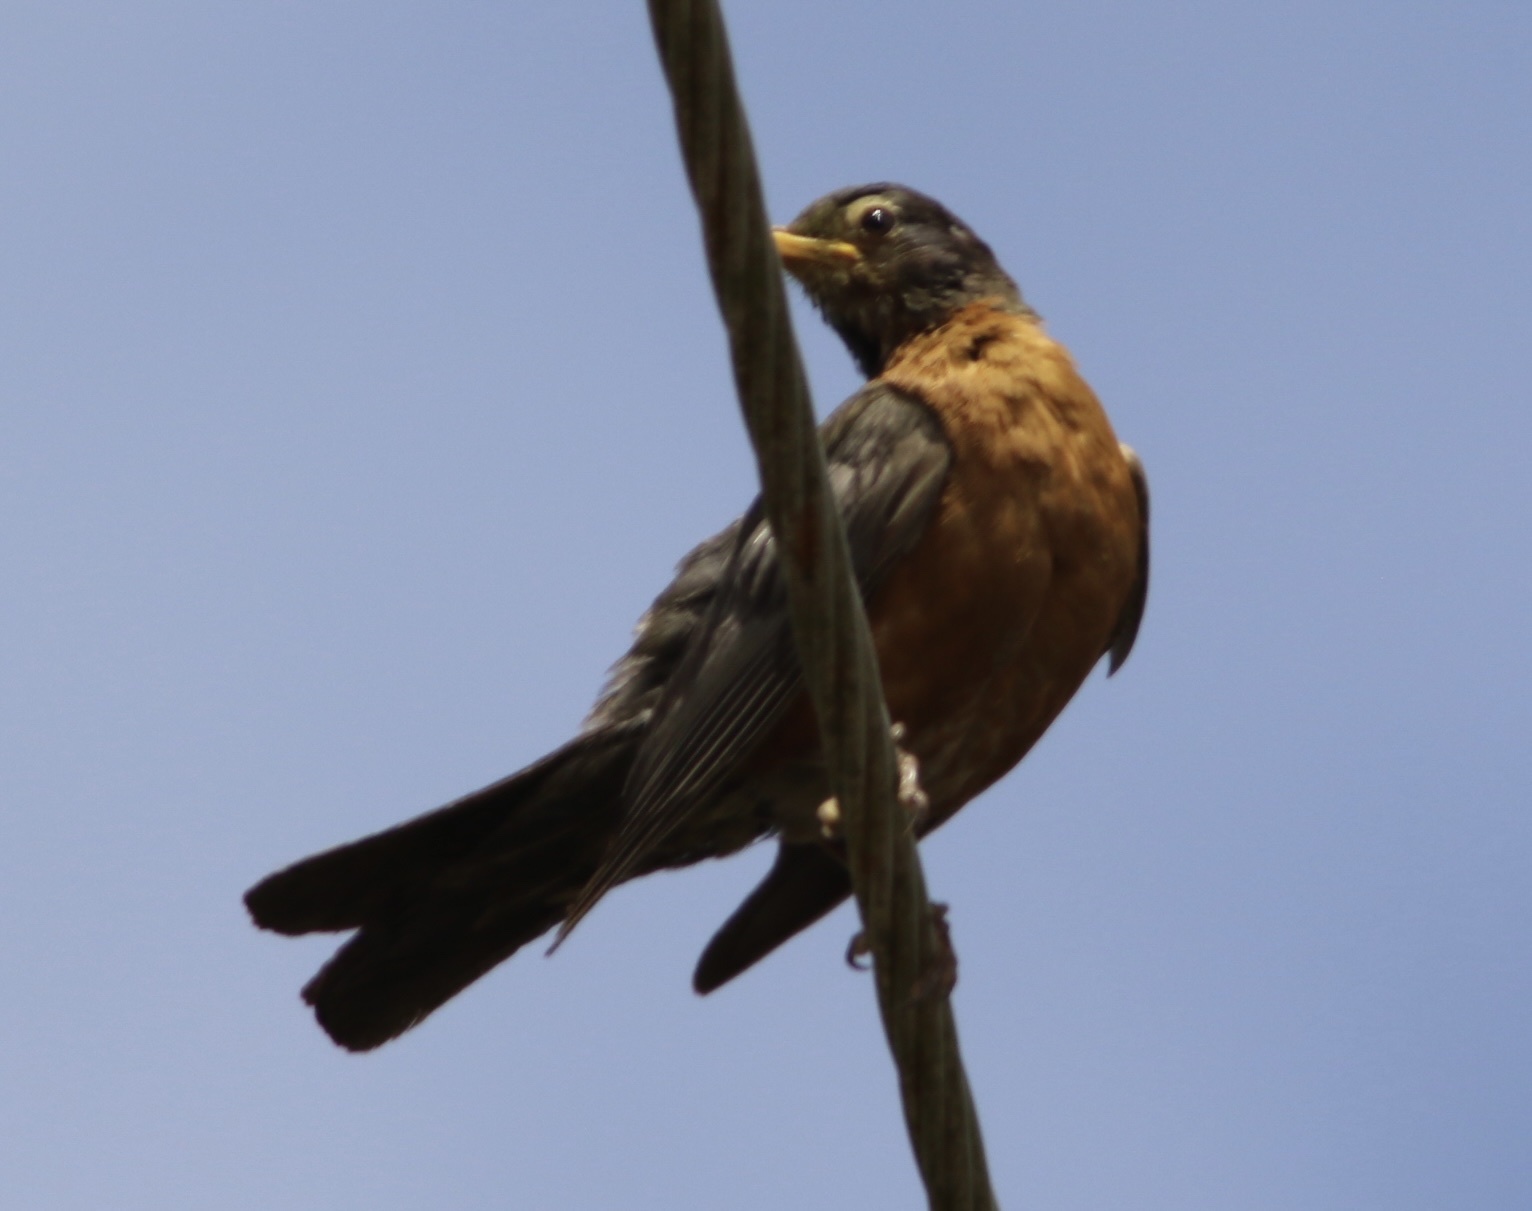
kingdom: Animalia
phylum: Chordata
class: Aves
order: Passeriformes
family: Turdidae
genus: Turdus
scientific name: Turdus migratorius
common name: American robin
